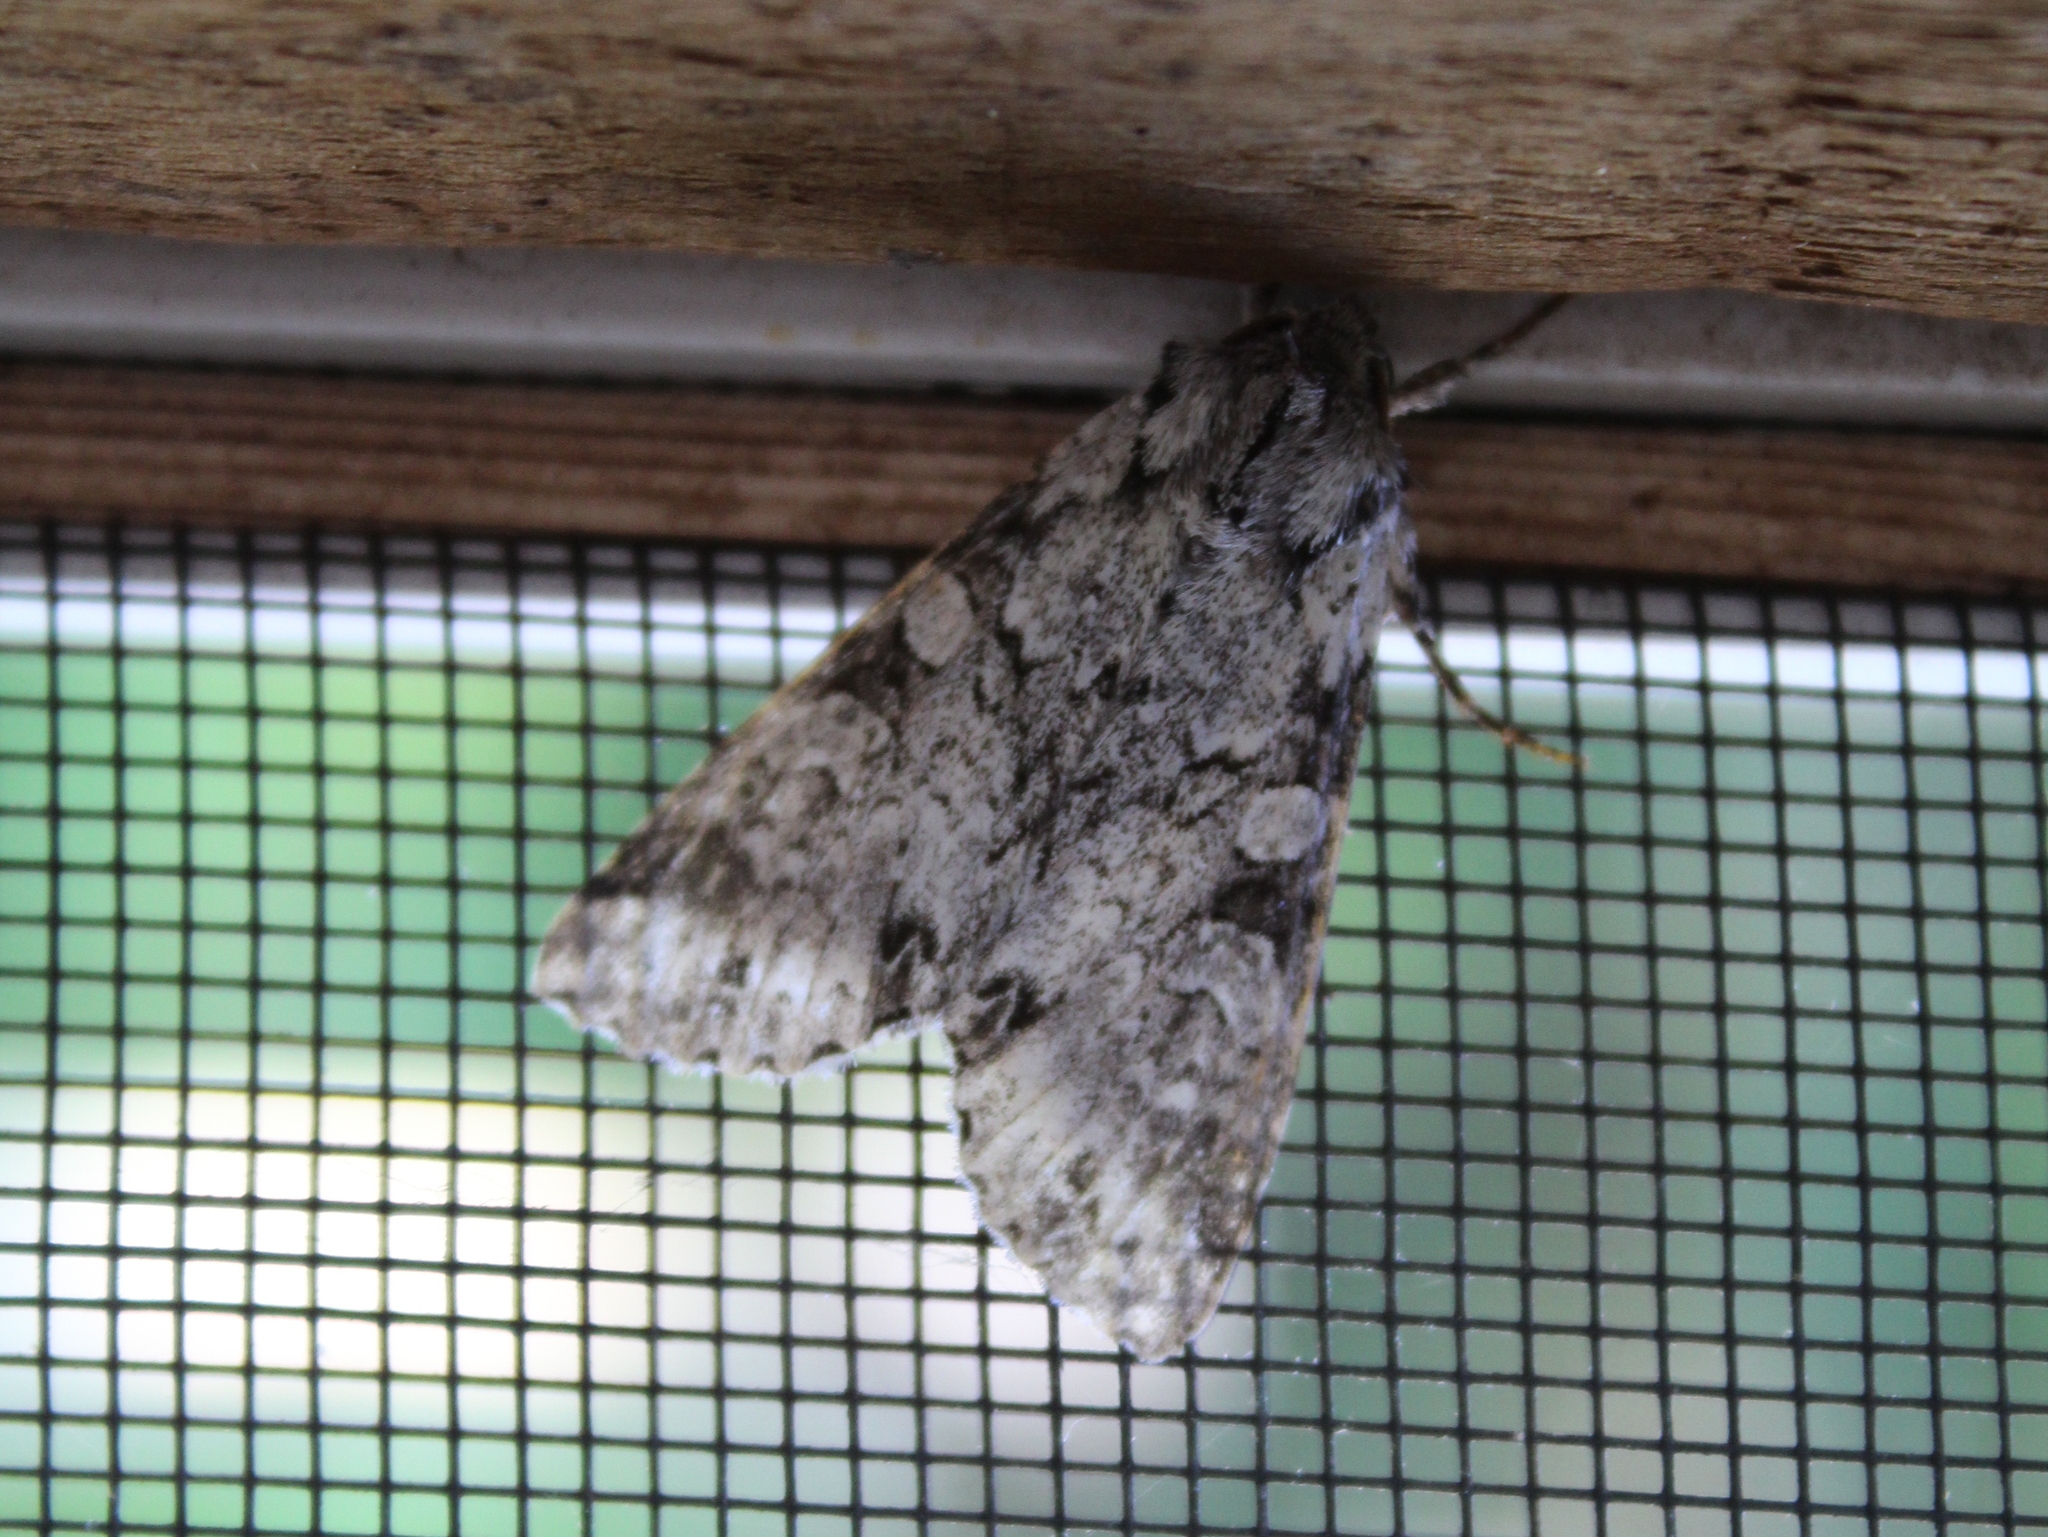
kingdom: Animalia
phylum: Arthropoda
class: Insecta
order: Lepidoptera
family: Noctuidae
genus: Polia
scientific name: Polia nimbosa
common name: Stormy arches
